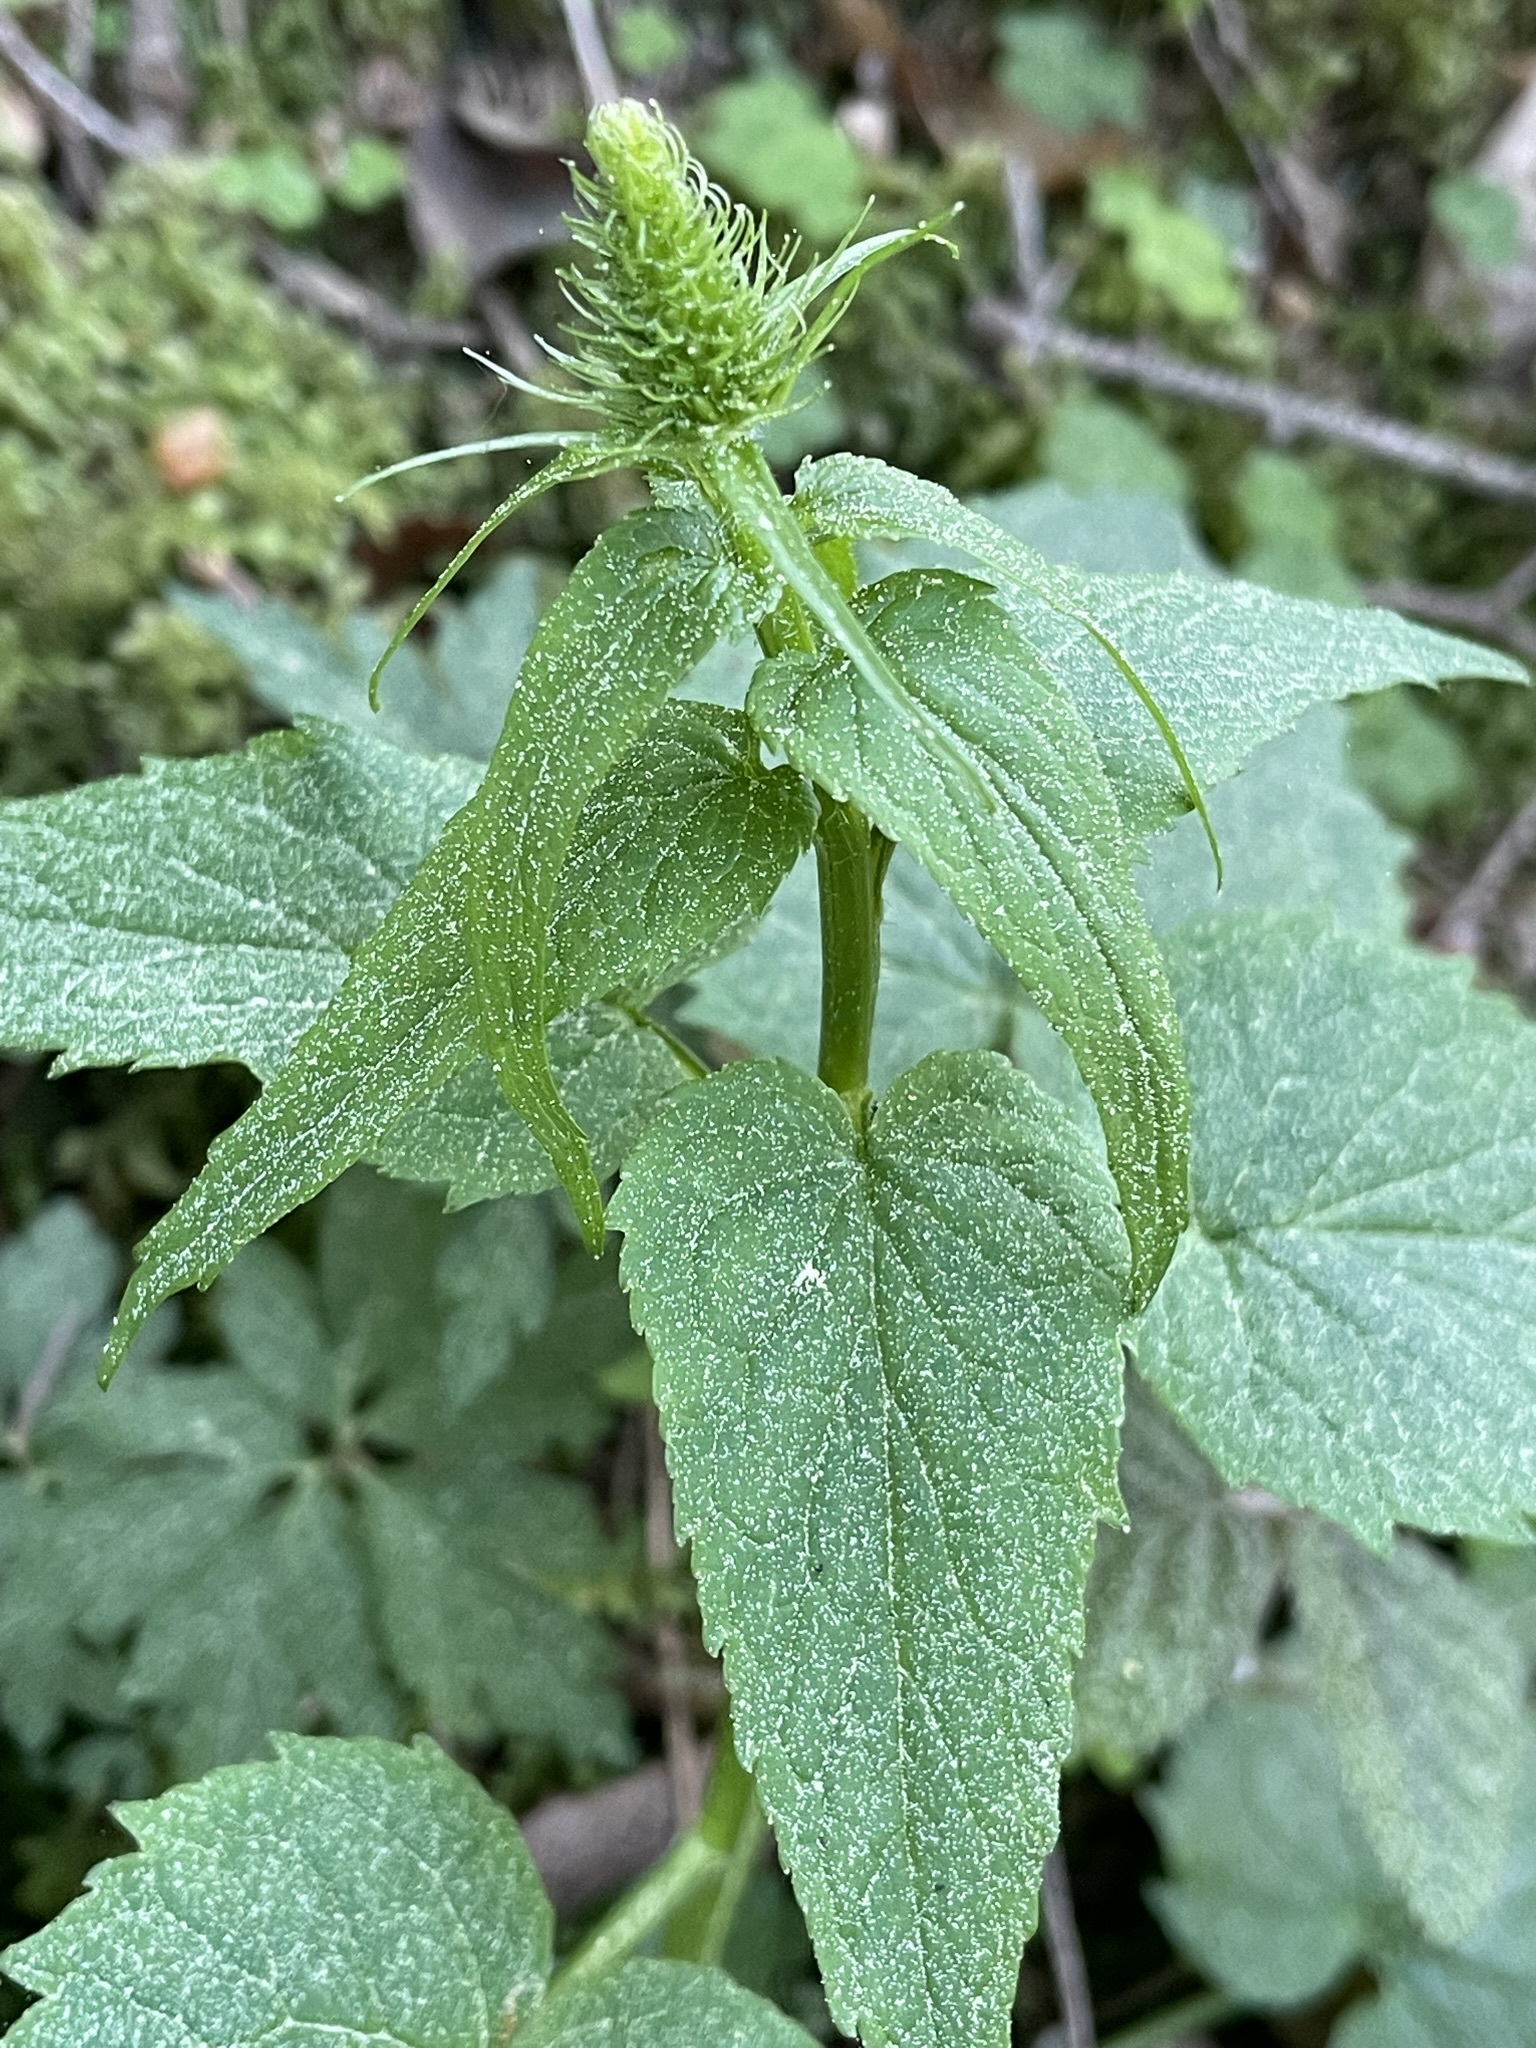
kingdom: Plantae
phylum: Tracheophyta
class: Magnoliopsida
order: Asterales
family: Campanulaceae
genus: Phyteuma
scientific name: Phyteuma spicatum
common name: Spiked rampion
